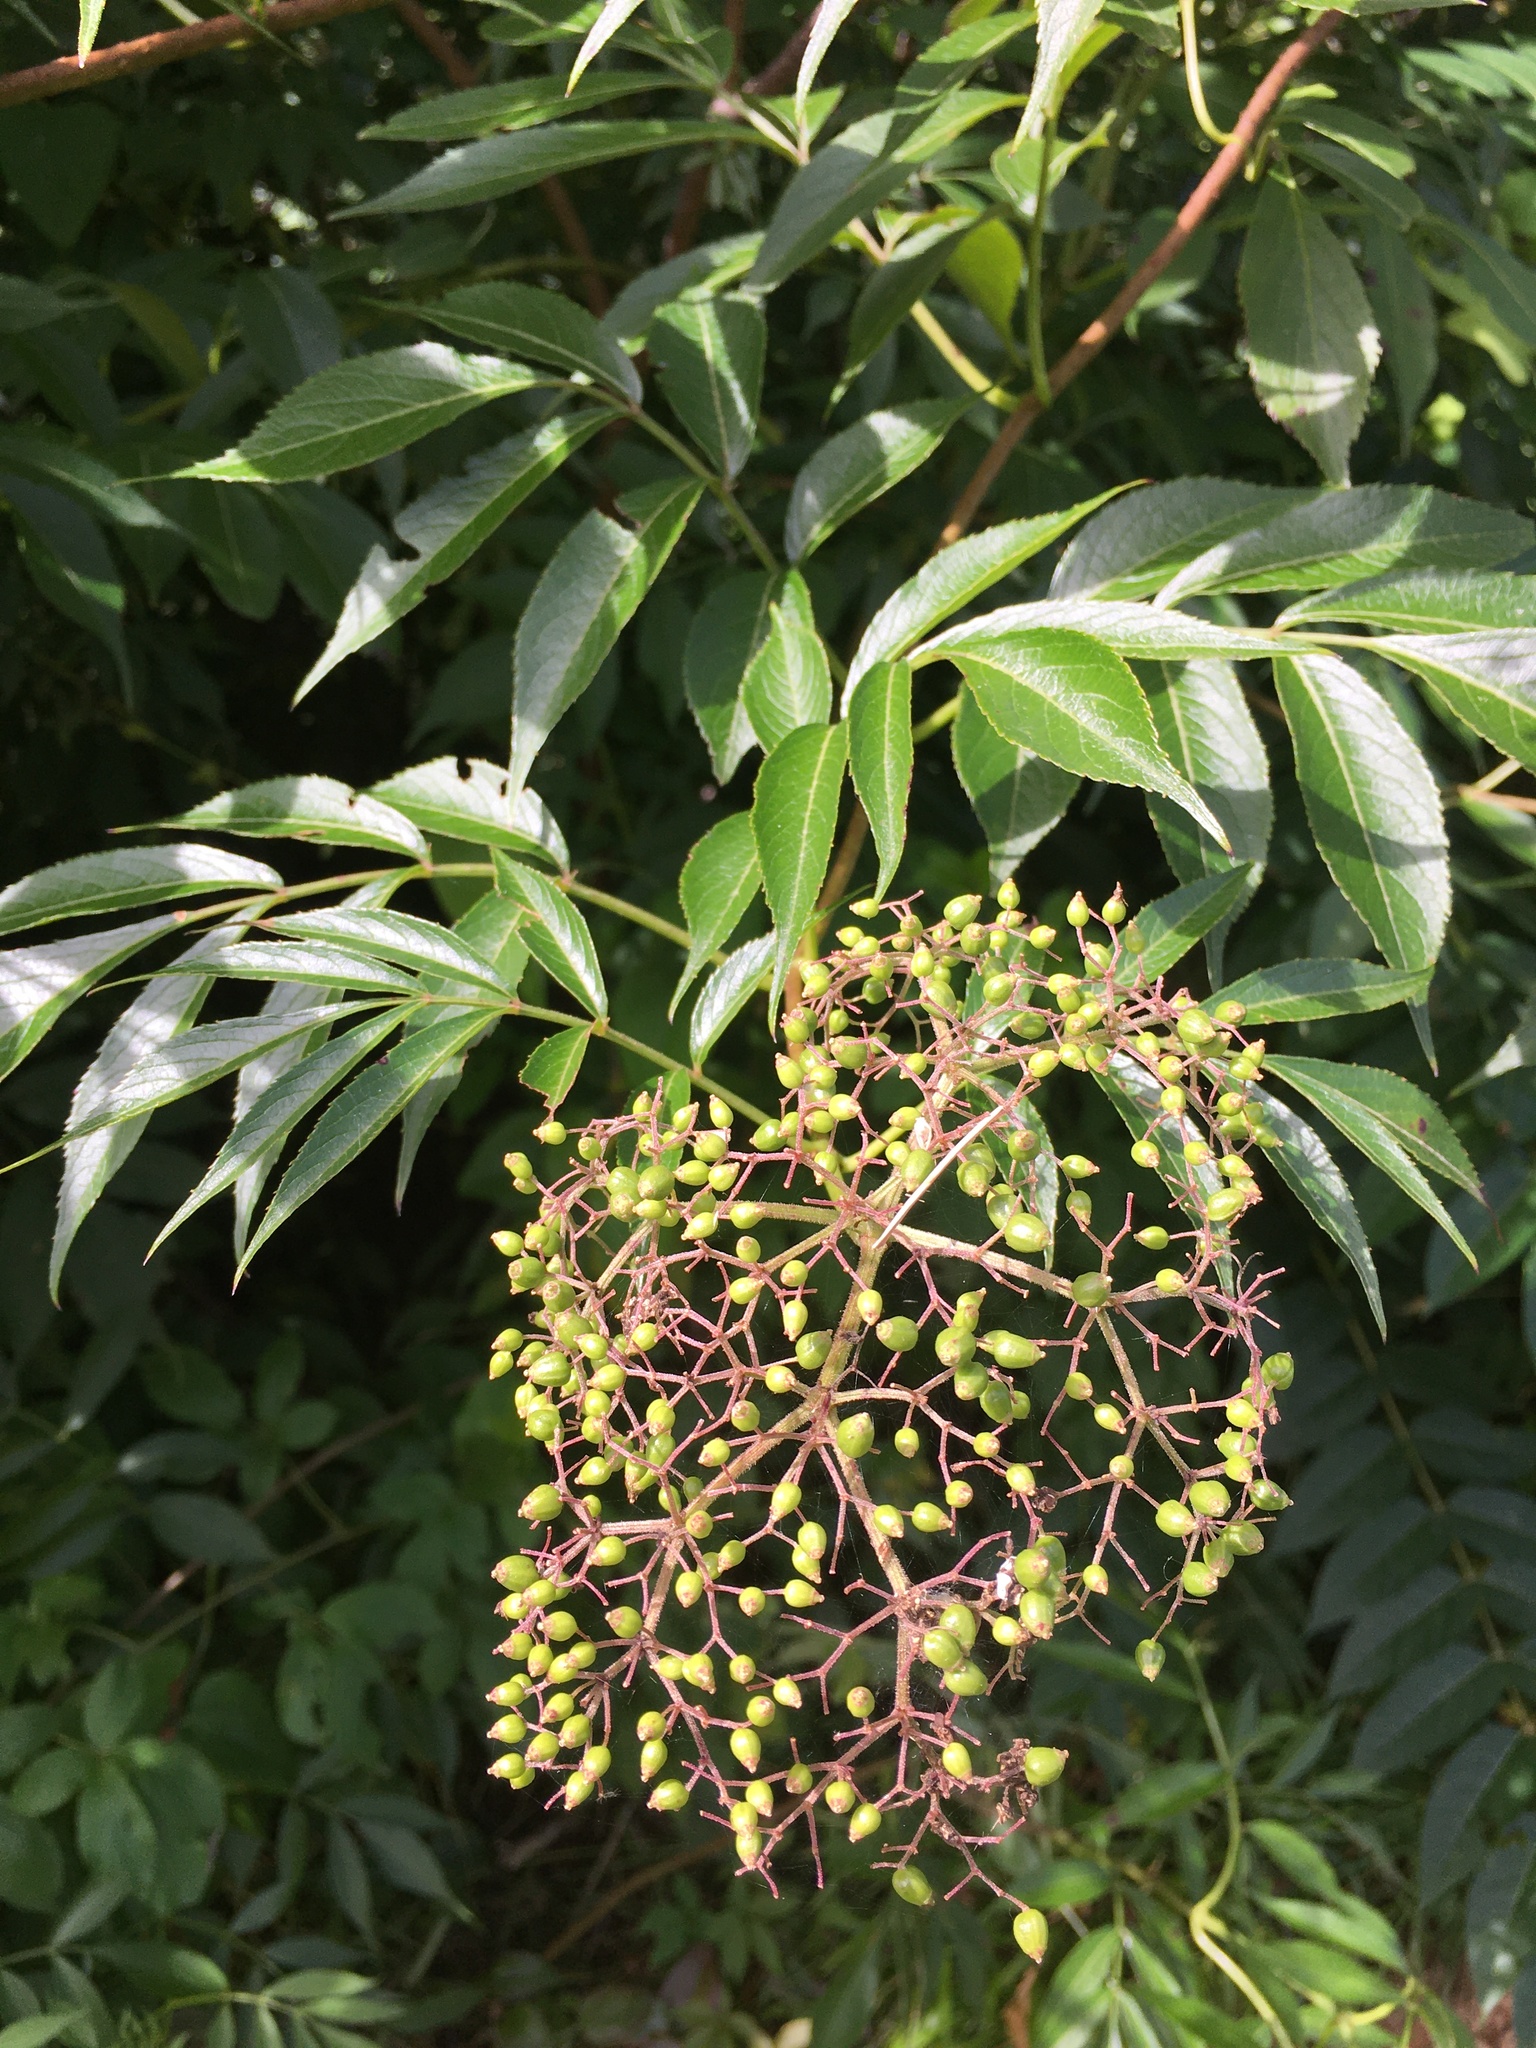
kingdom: Plantae
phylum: Tracheophyta
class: Magnoliopsida
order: Dipsacales
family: Viburnaceae
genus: Sambucus
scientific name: Sambucus canadensis
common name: American elder
